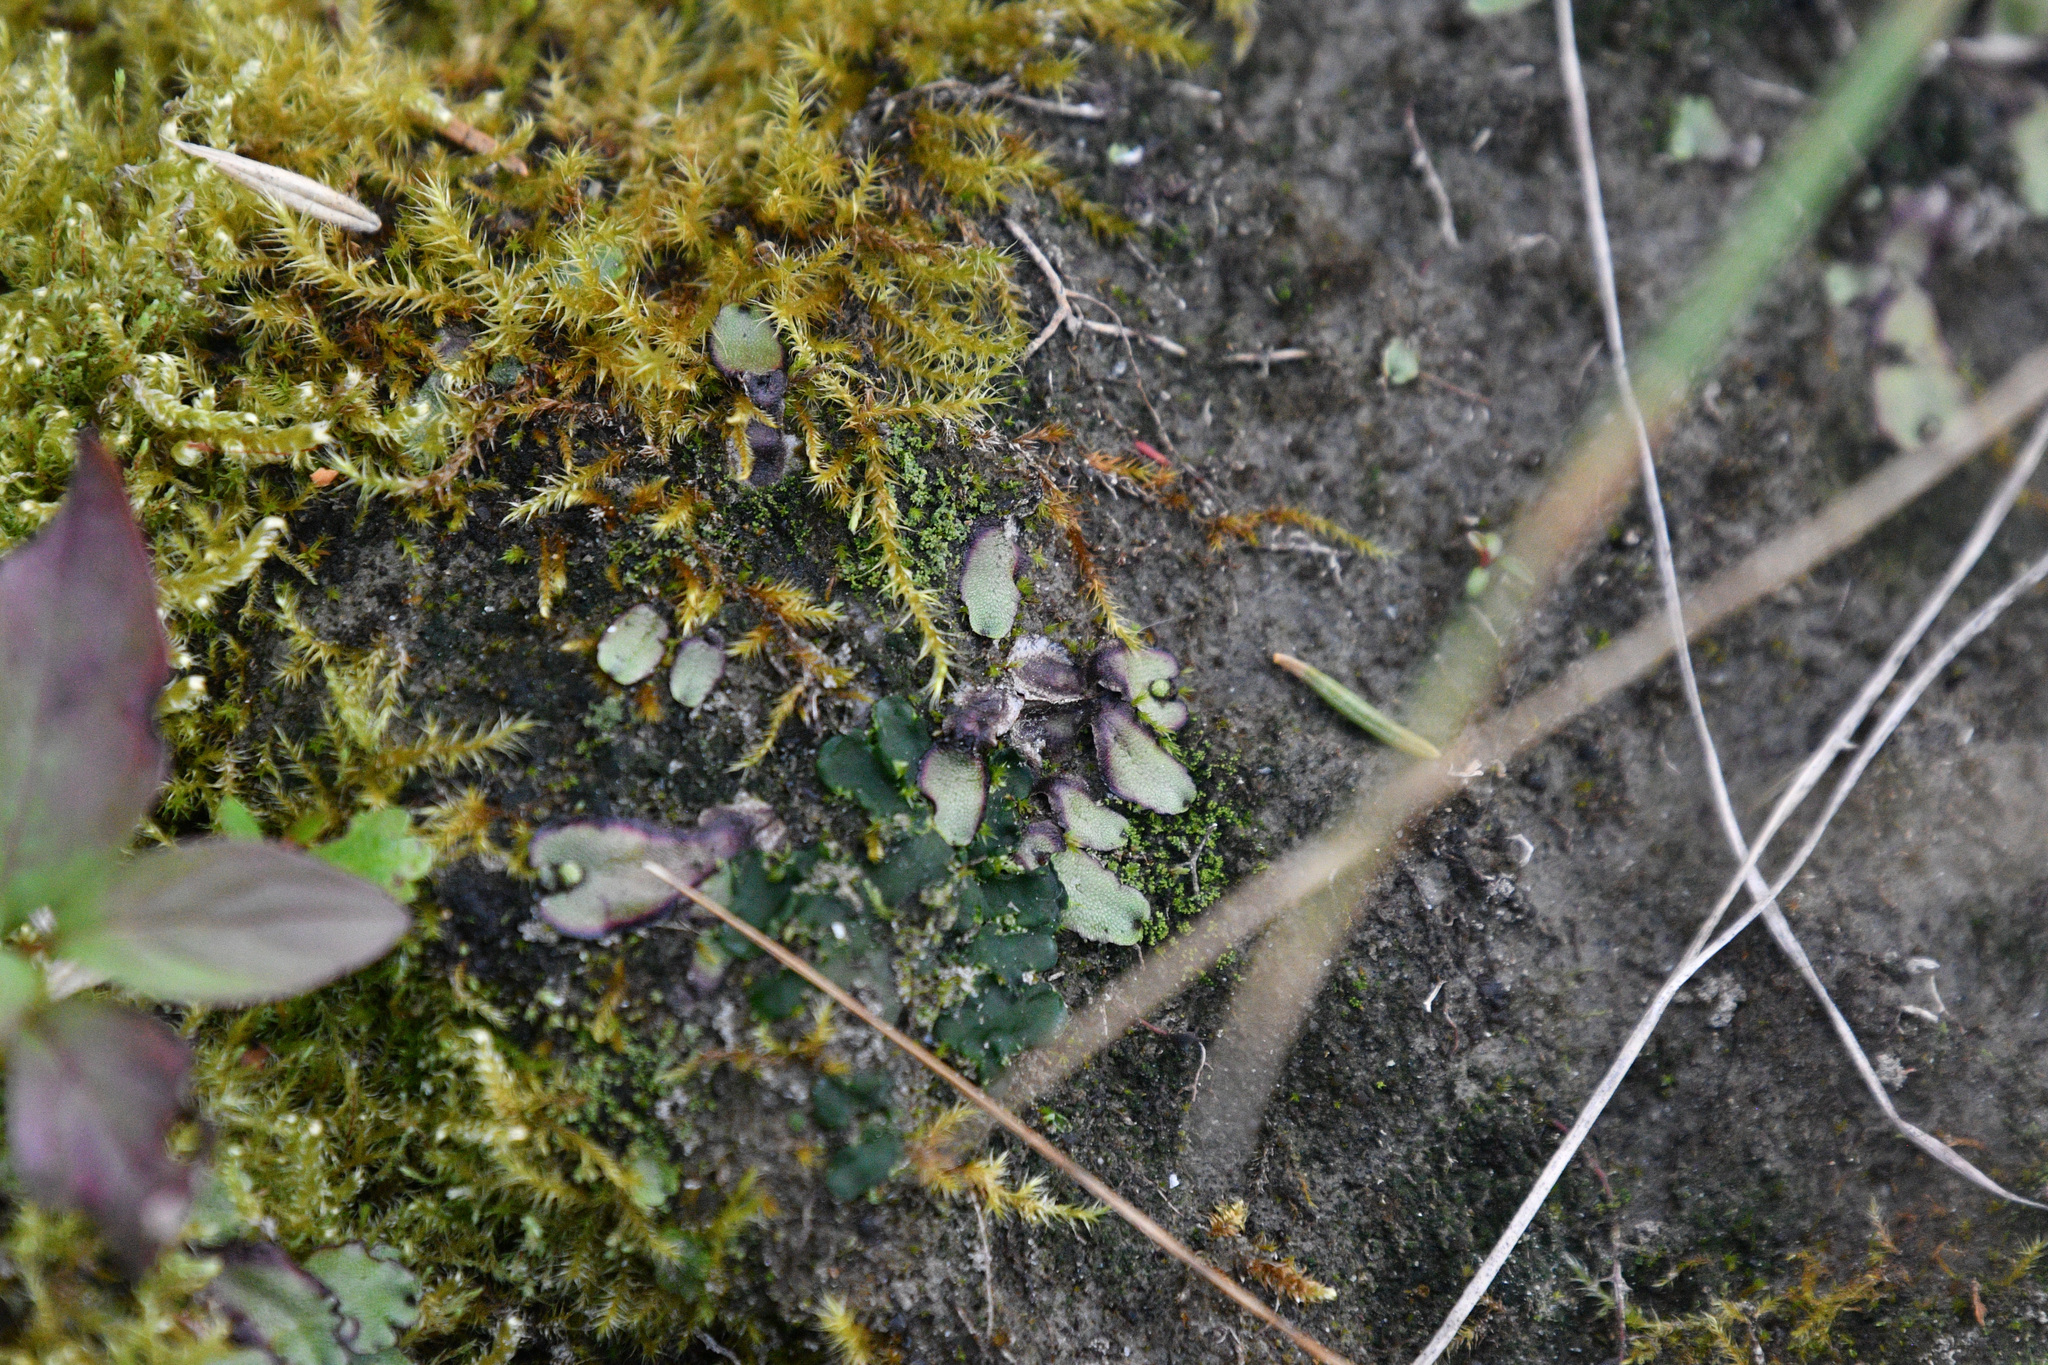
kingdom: Plantae
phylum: Marchantiophyta
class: Marchantiopsida
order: Marchantiales
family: Marchantiaceae
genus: Marchantia
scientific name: Marchantia quadrata
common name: Narrow mushroom-headed liverwort
